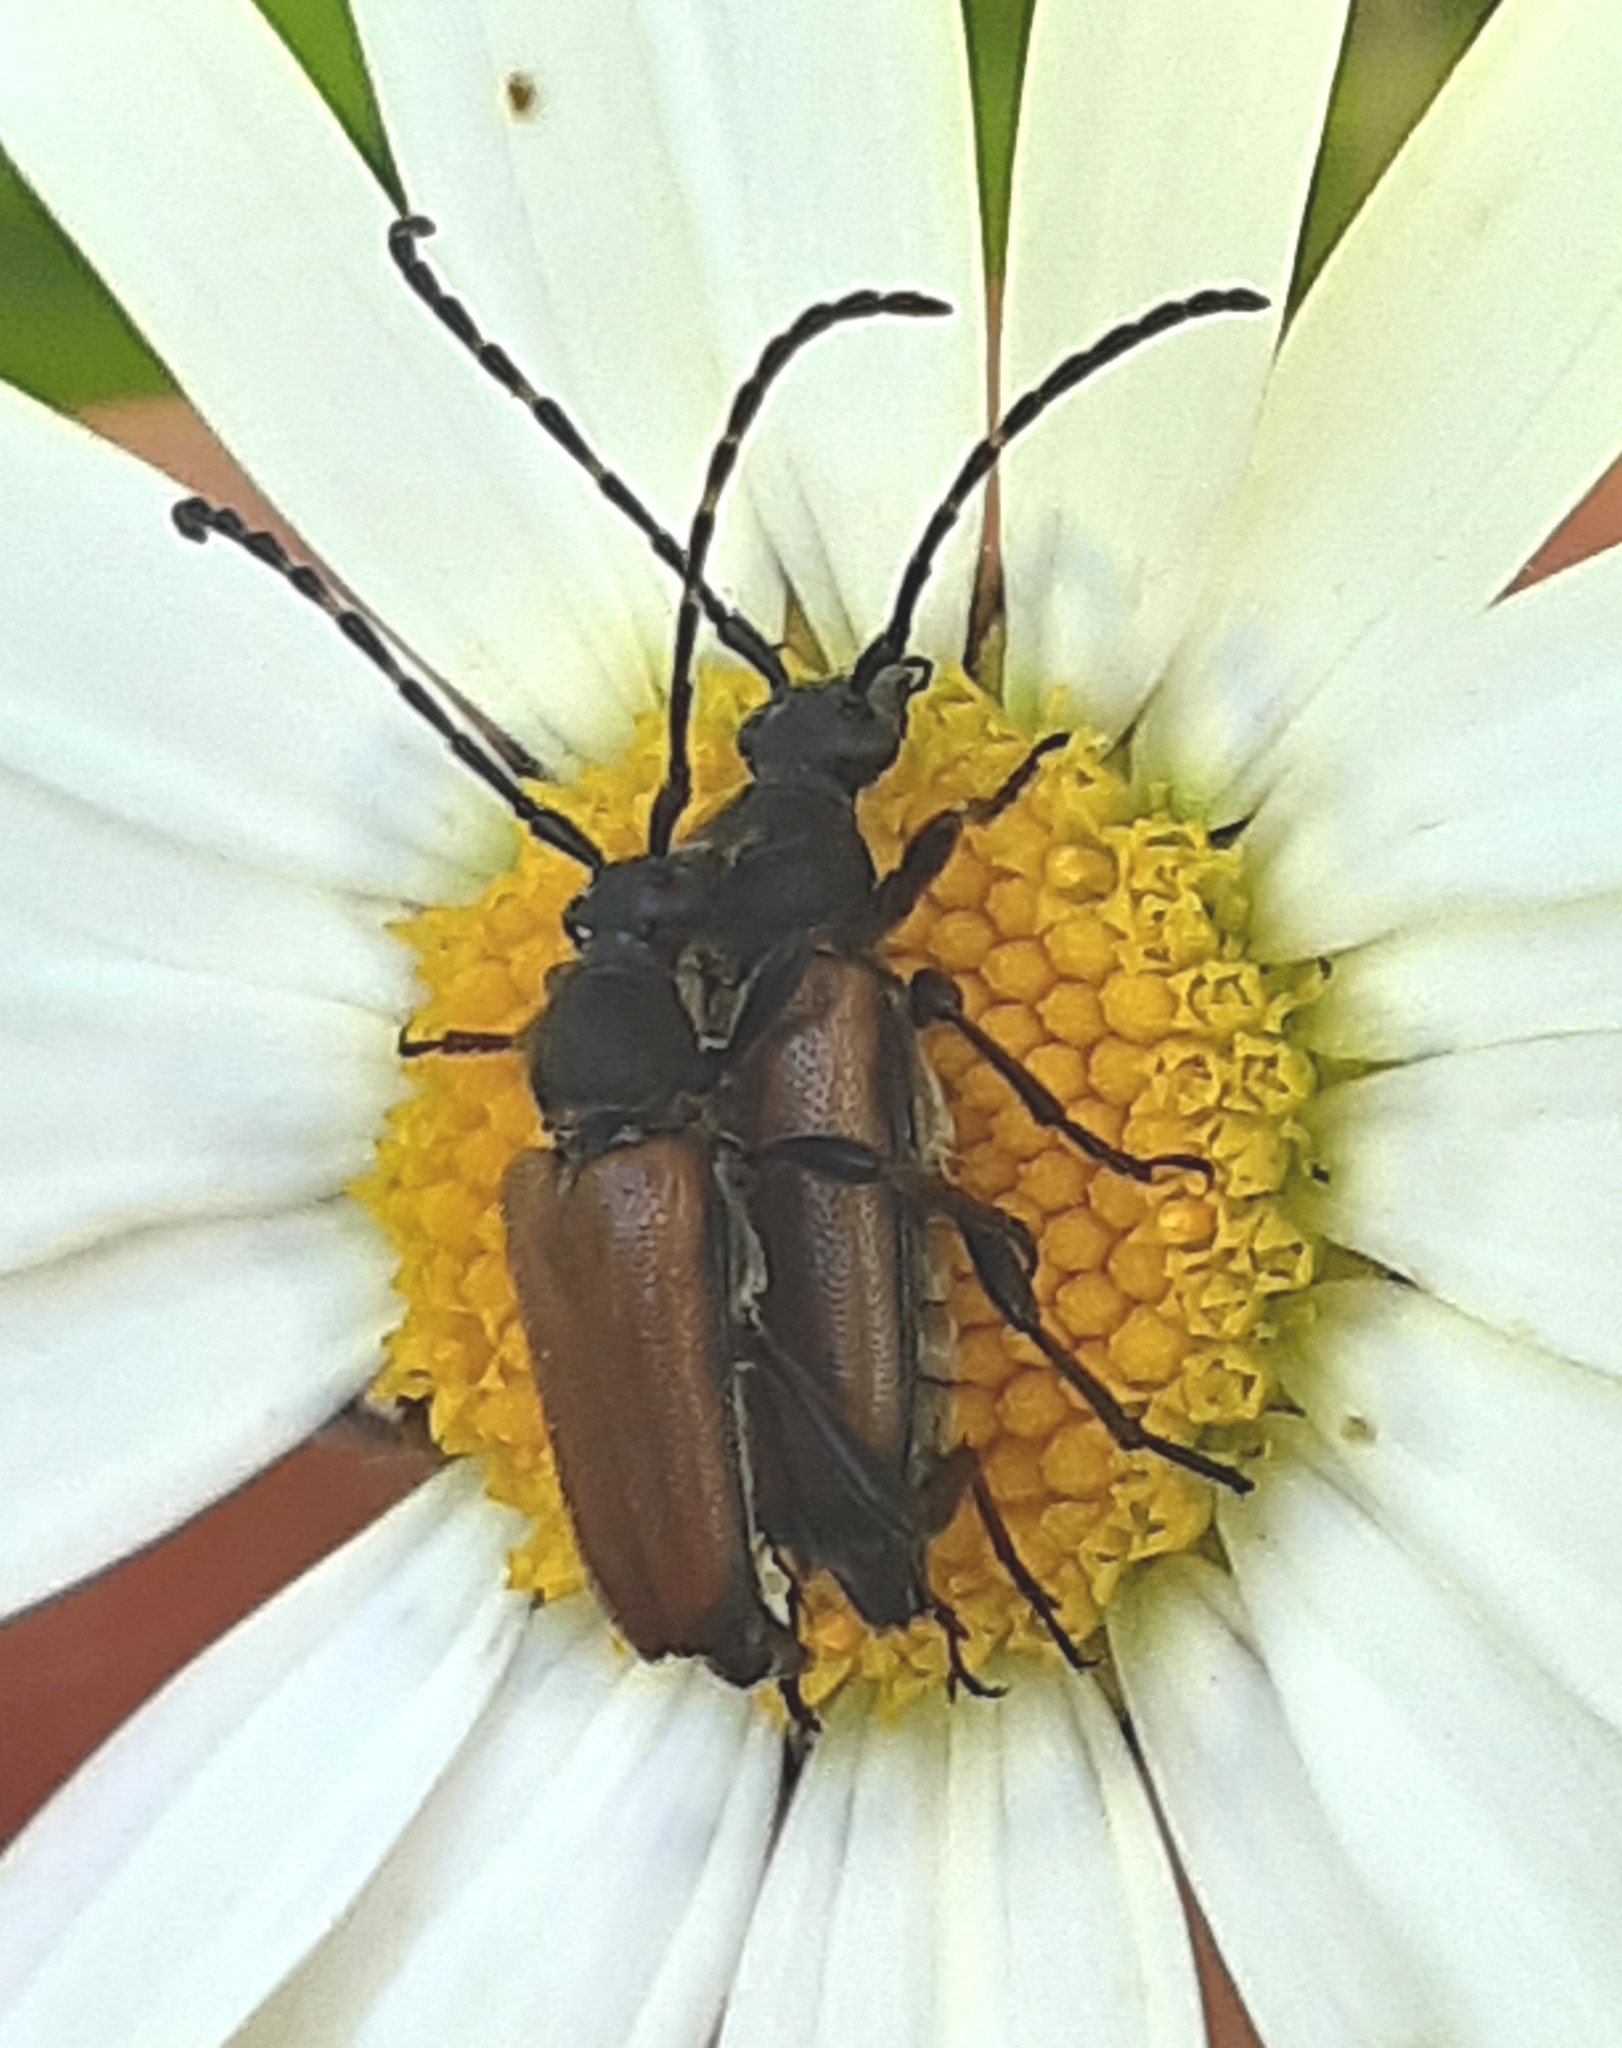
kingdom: Animalia
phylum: Arthropoda
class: Insecta
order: Coleoptera
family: Cerambycidae
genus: Paracorymbia
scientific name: Paracorymbia maculicornis
